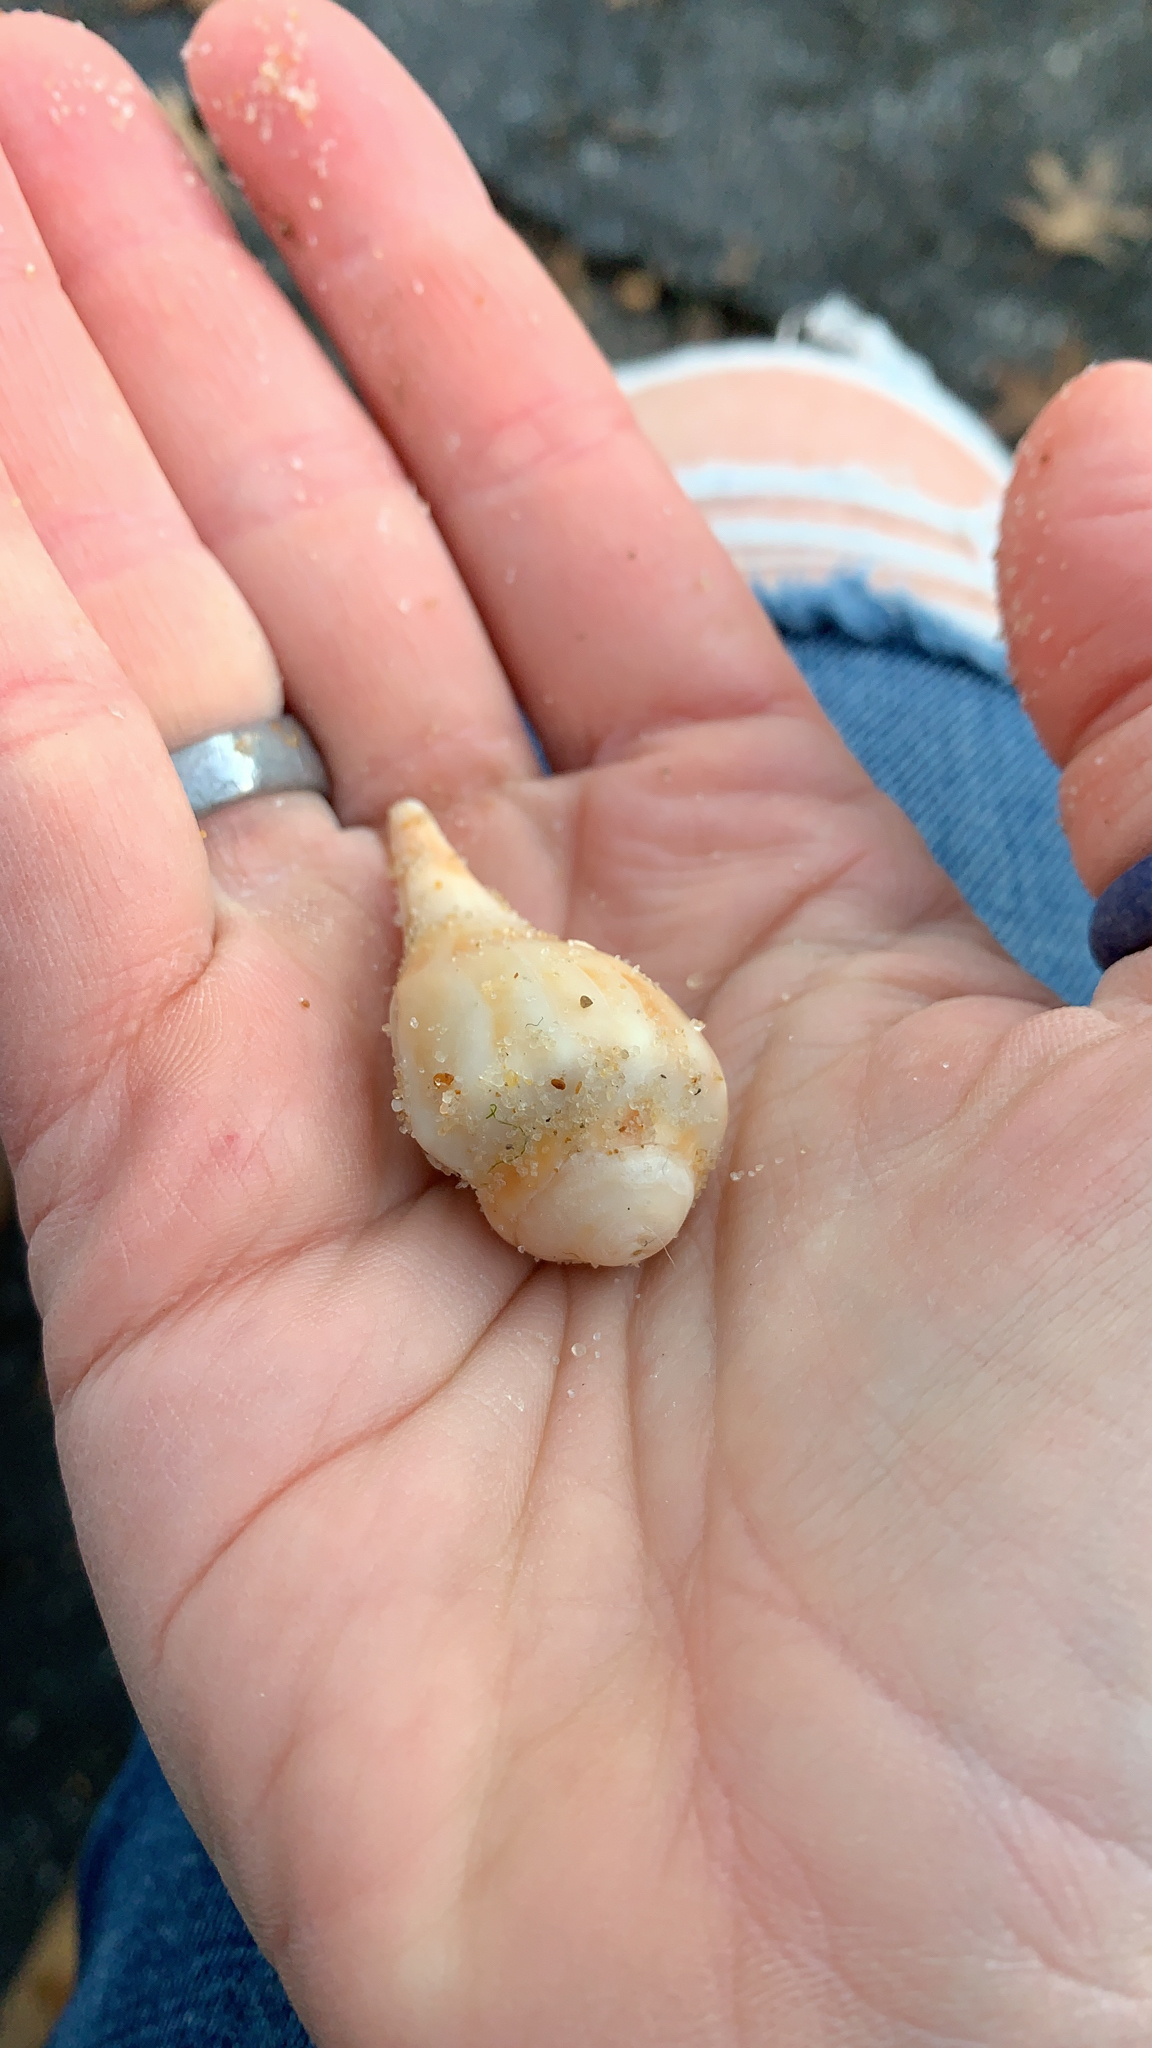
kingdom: Animalia
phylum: Mollusca
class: Gastropoda
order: Neogastropoda
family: Busyconidae
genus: Sinistrofulgur
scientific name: Sinistrofulgur laeostomum
